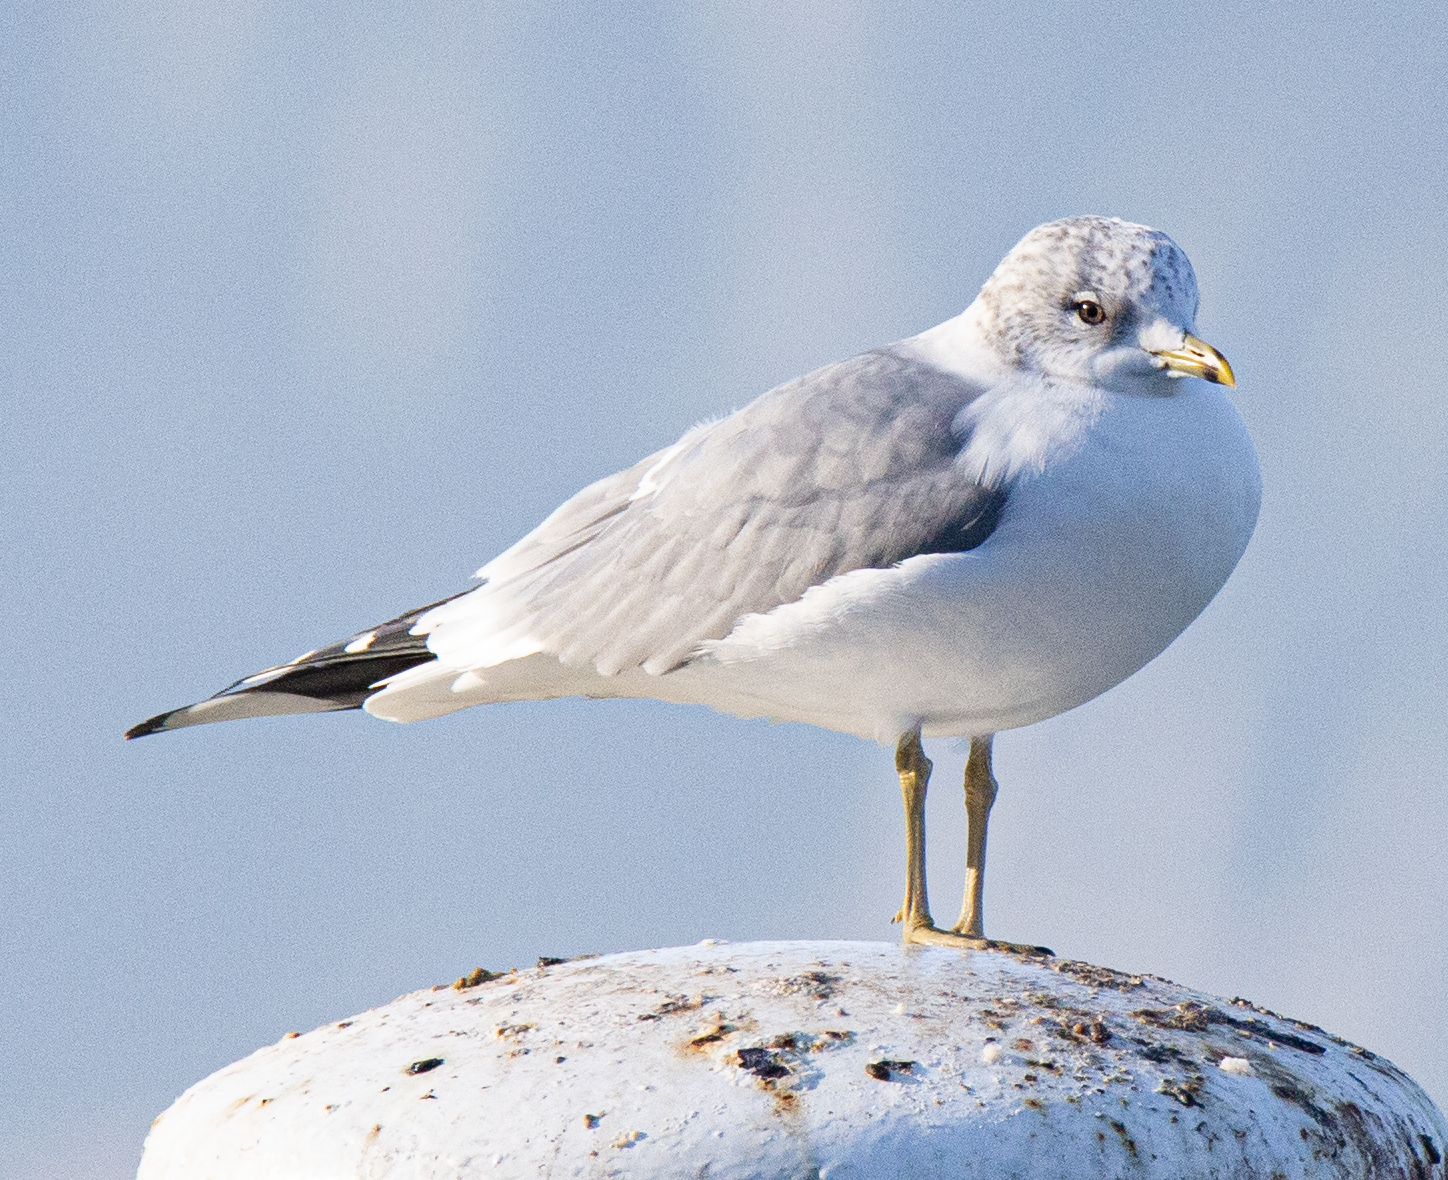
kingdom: Animalia
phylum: Chordata
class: Aves
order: Charadriiformes
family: Laridae
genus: Larus
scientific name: Larus canus
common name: Mew gull
